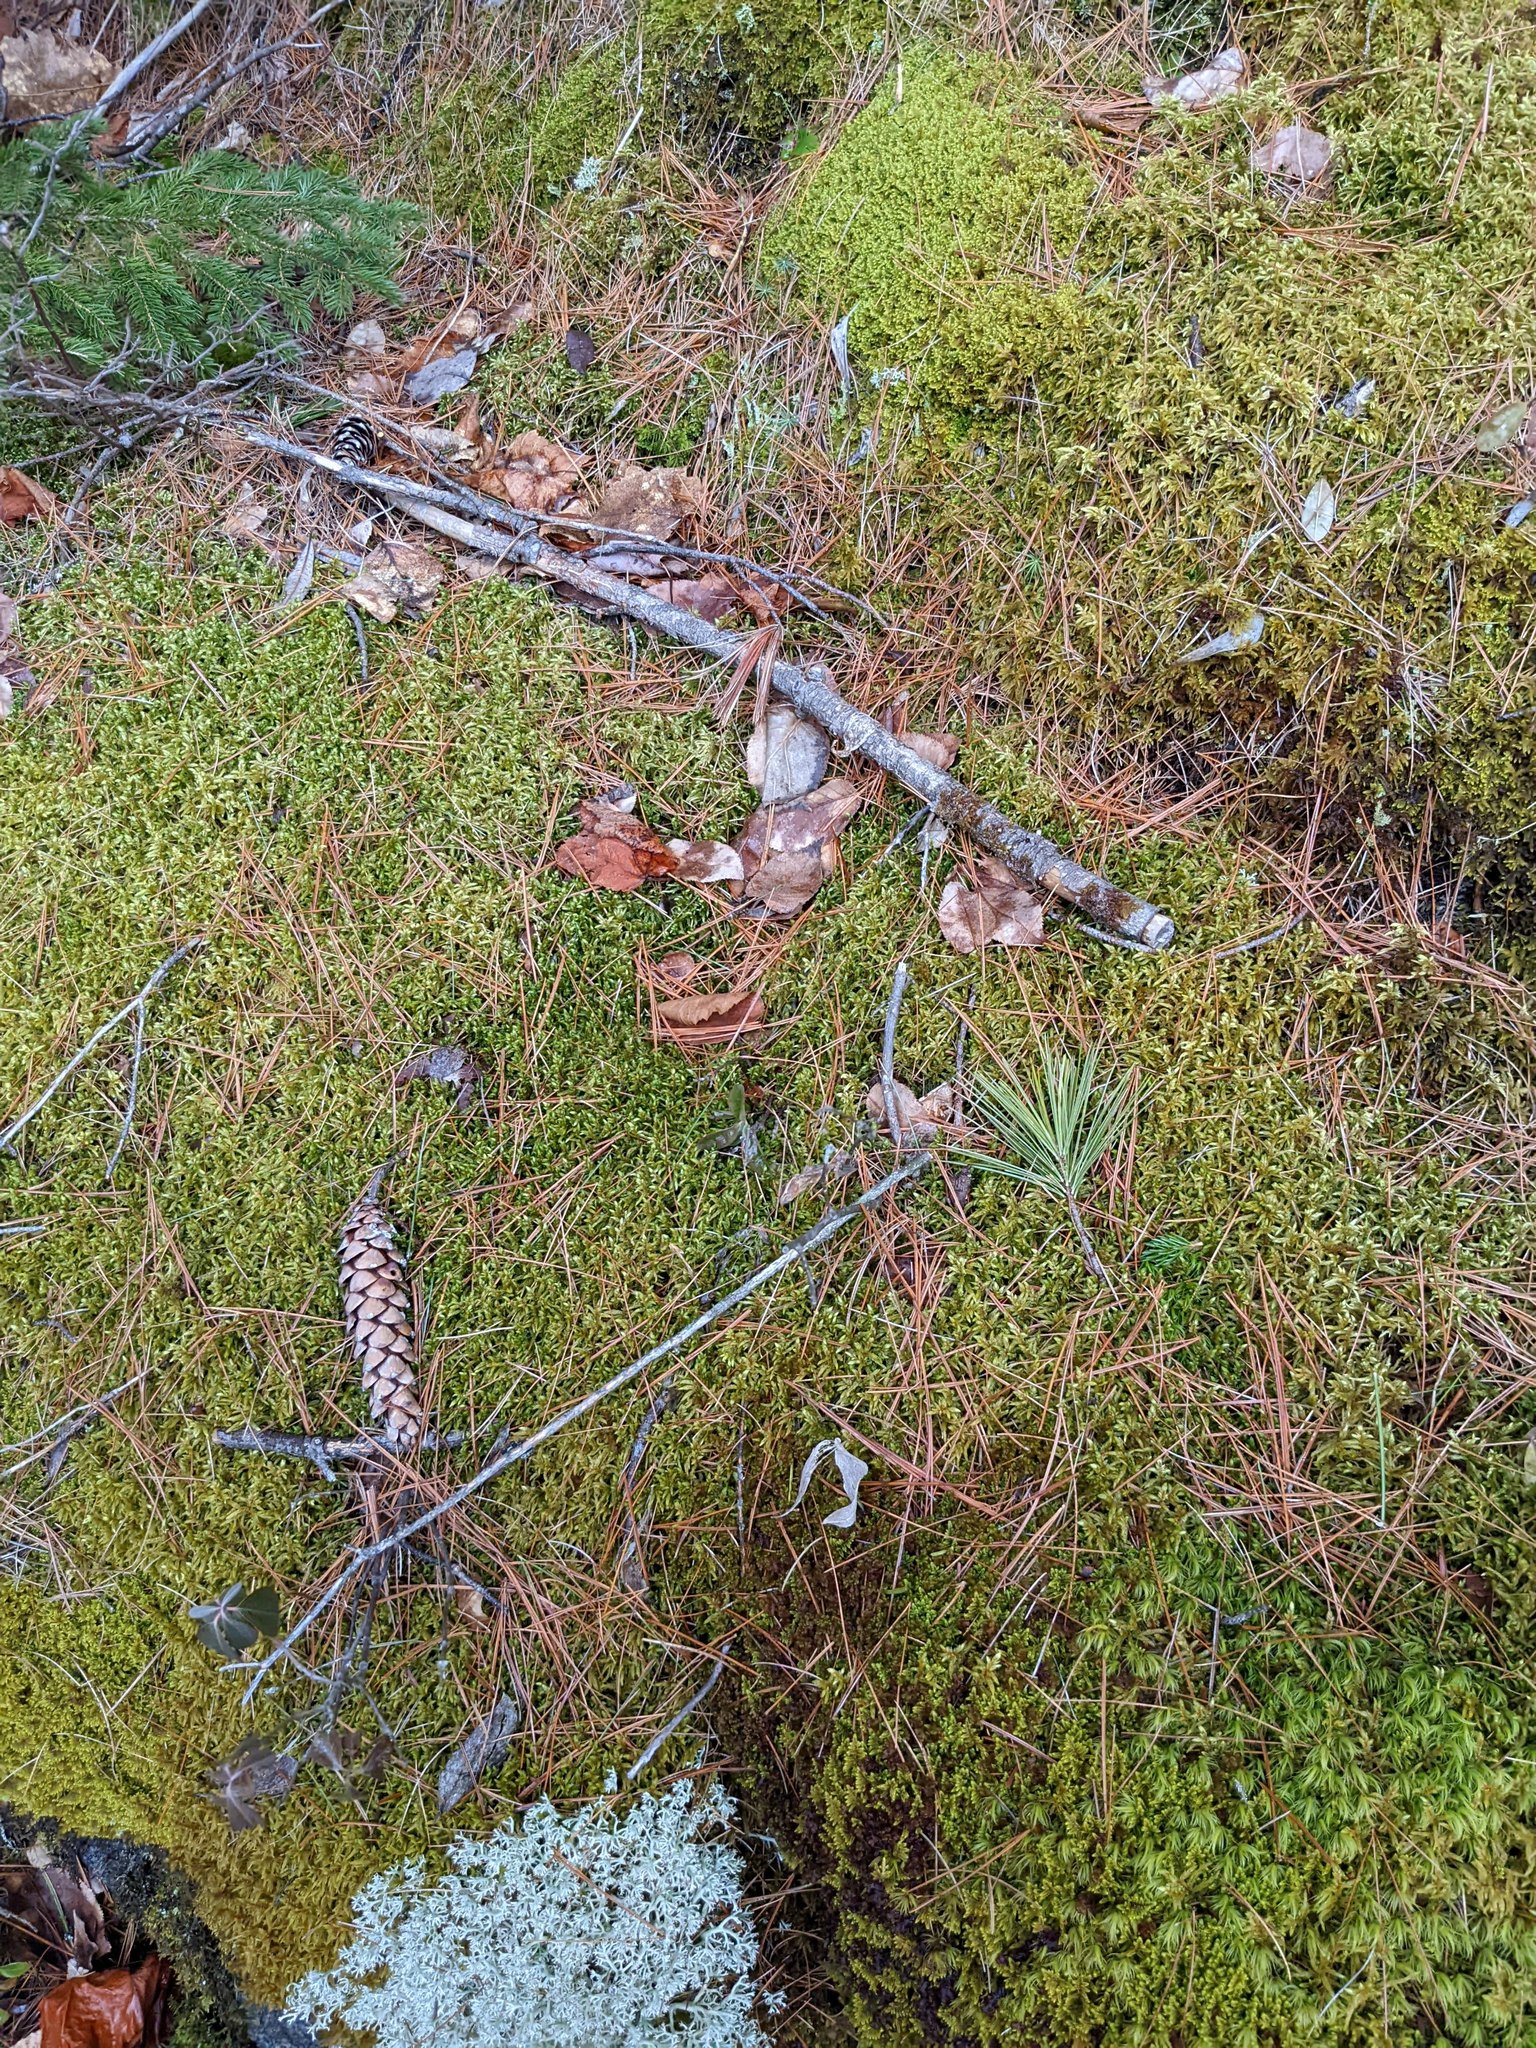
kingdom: Plantae
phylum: Tracheophyta
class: Pinopsida
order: Pinales
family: Pinaceae
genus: Pinus
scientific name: Pinus strobus
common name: Weymouth pine
